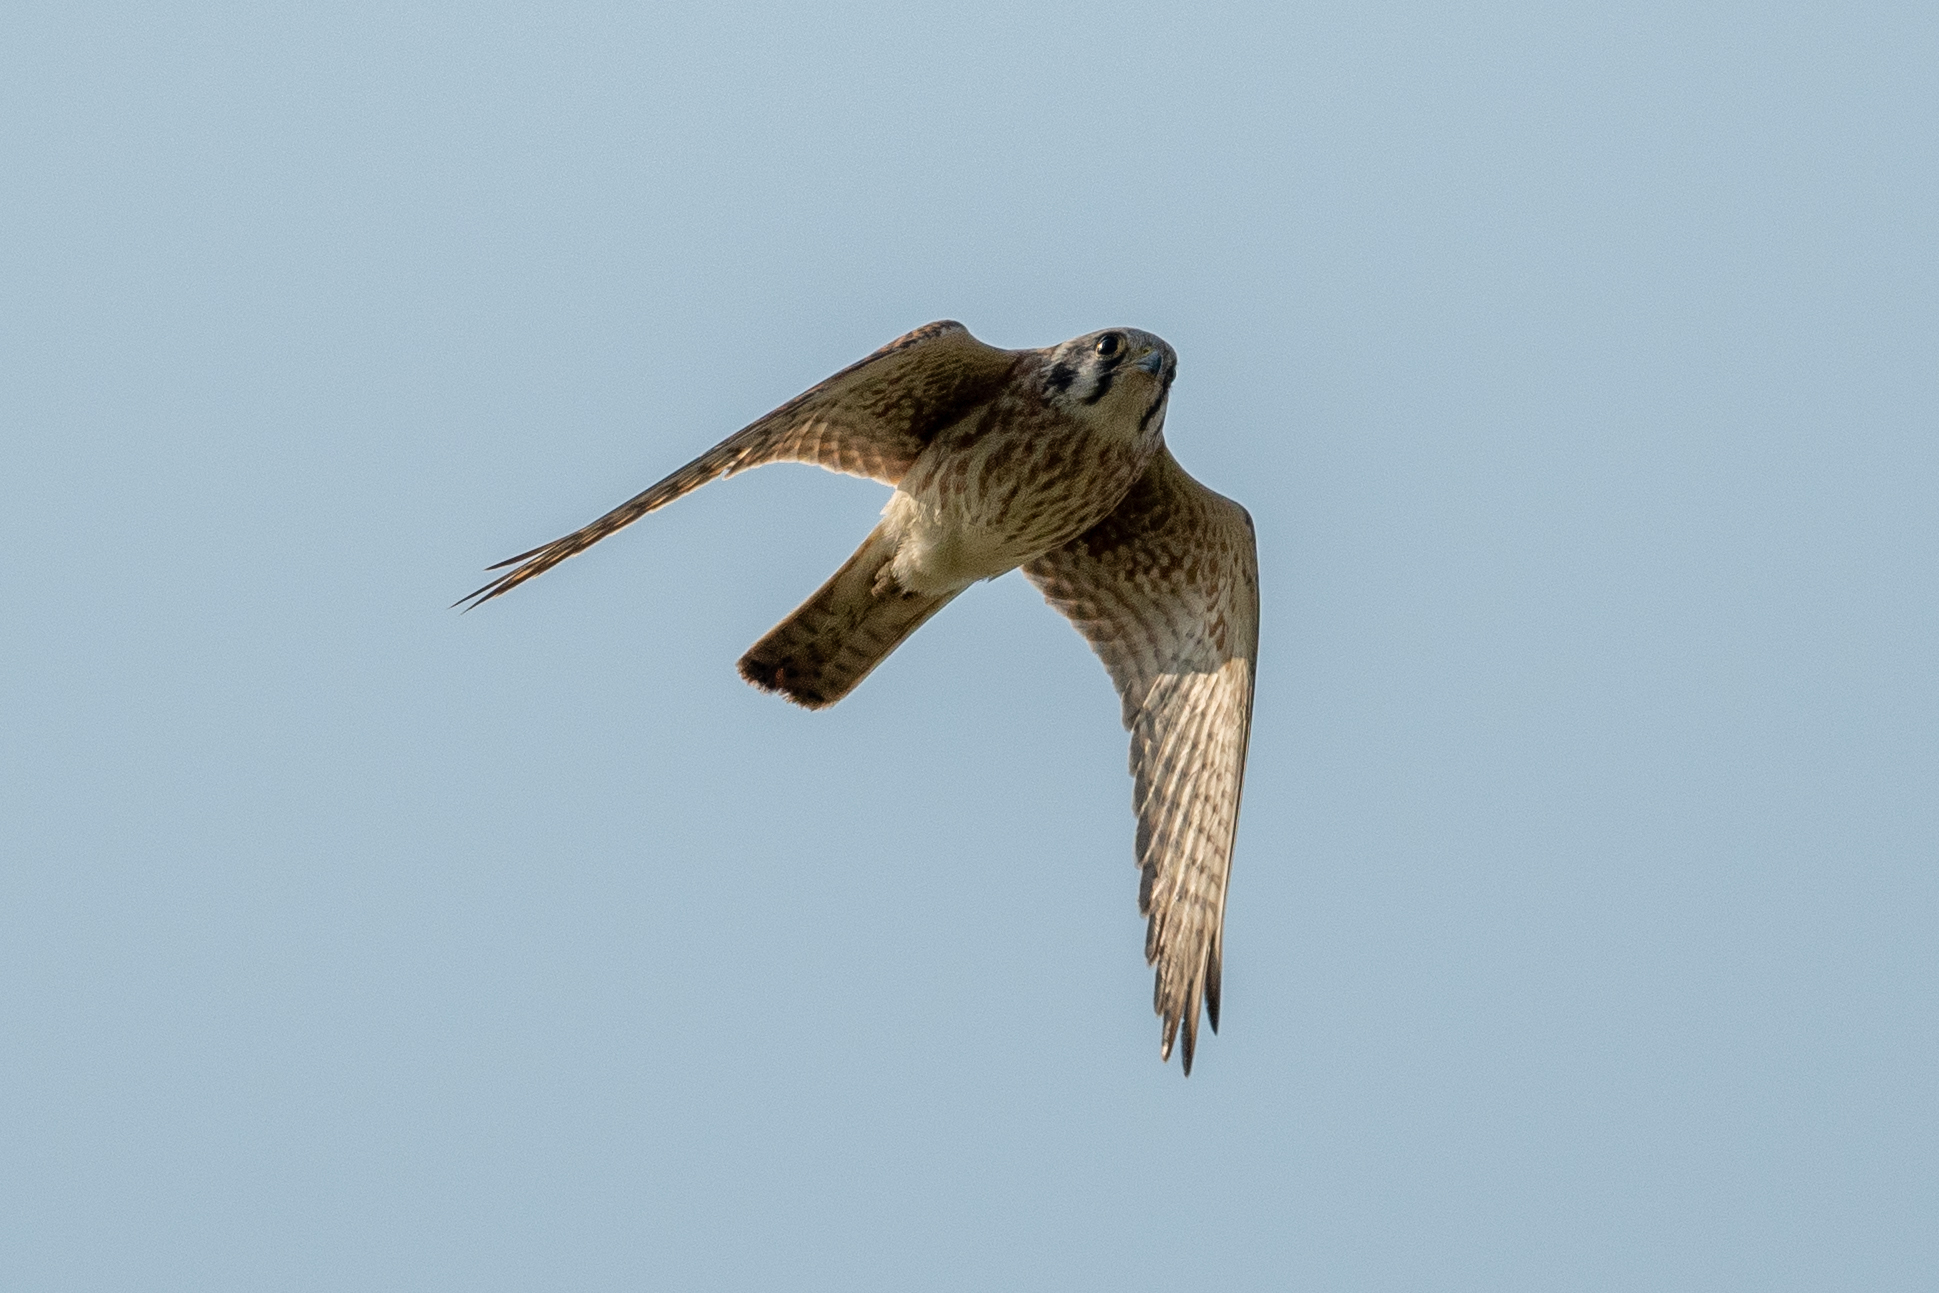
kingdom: Animalia
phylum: Chordata
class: Aves
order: Falconiformes
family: Falconidae
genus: Falco
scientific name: Falco sparverius
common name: American kestrel
